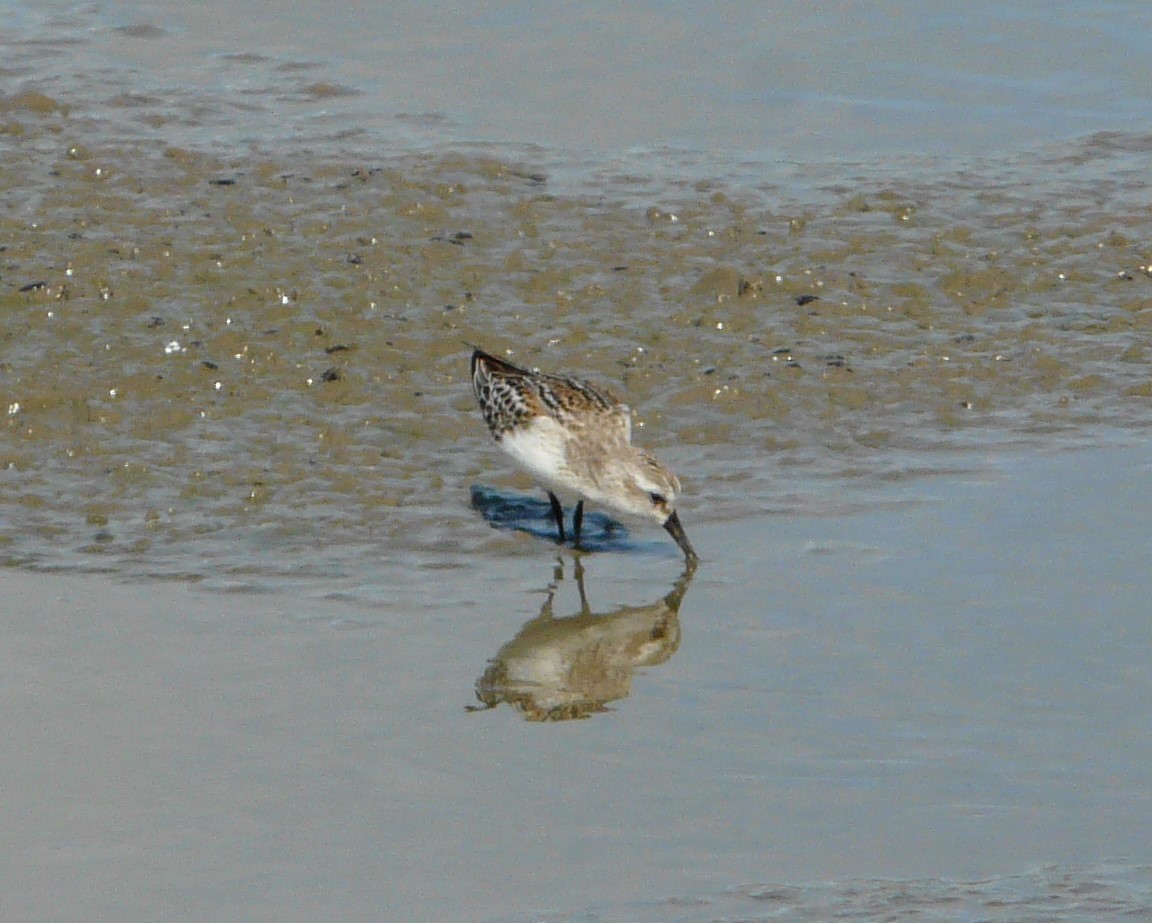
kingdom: Animalia
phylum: Chordata
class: Aves
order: Charadriiformes
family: Scolopacidae
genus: Calidris
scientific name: Calidris mauri
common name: Western sandpiper
